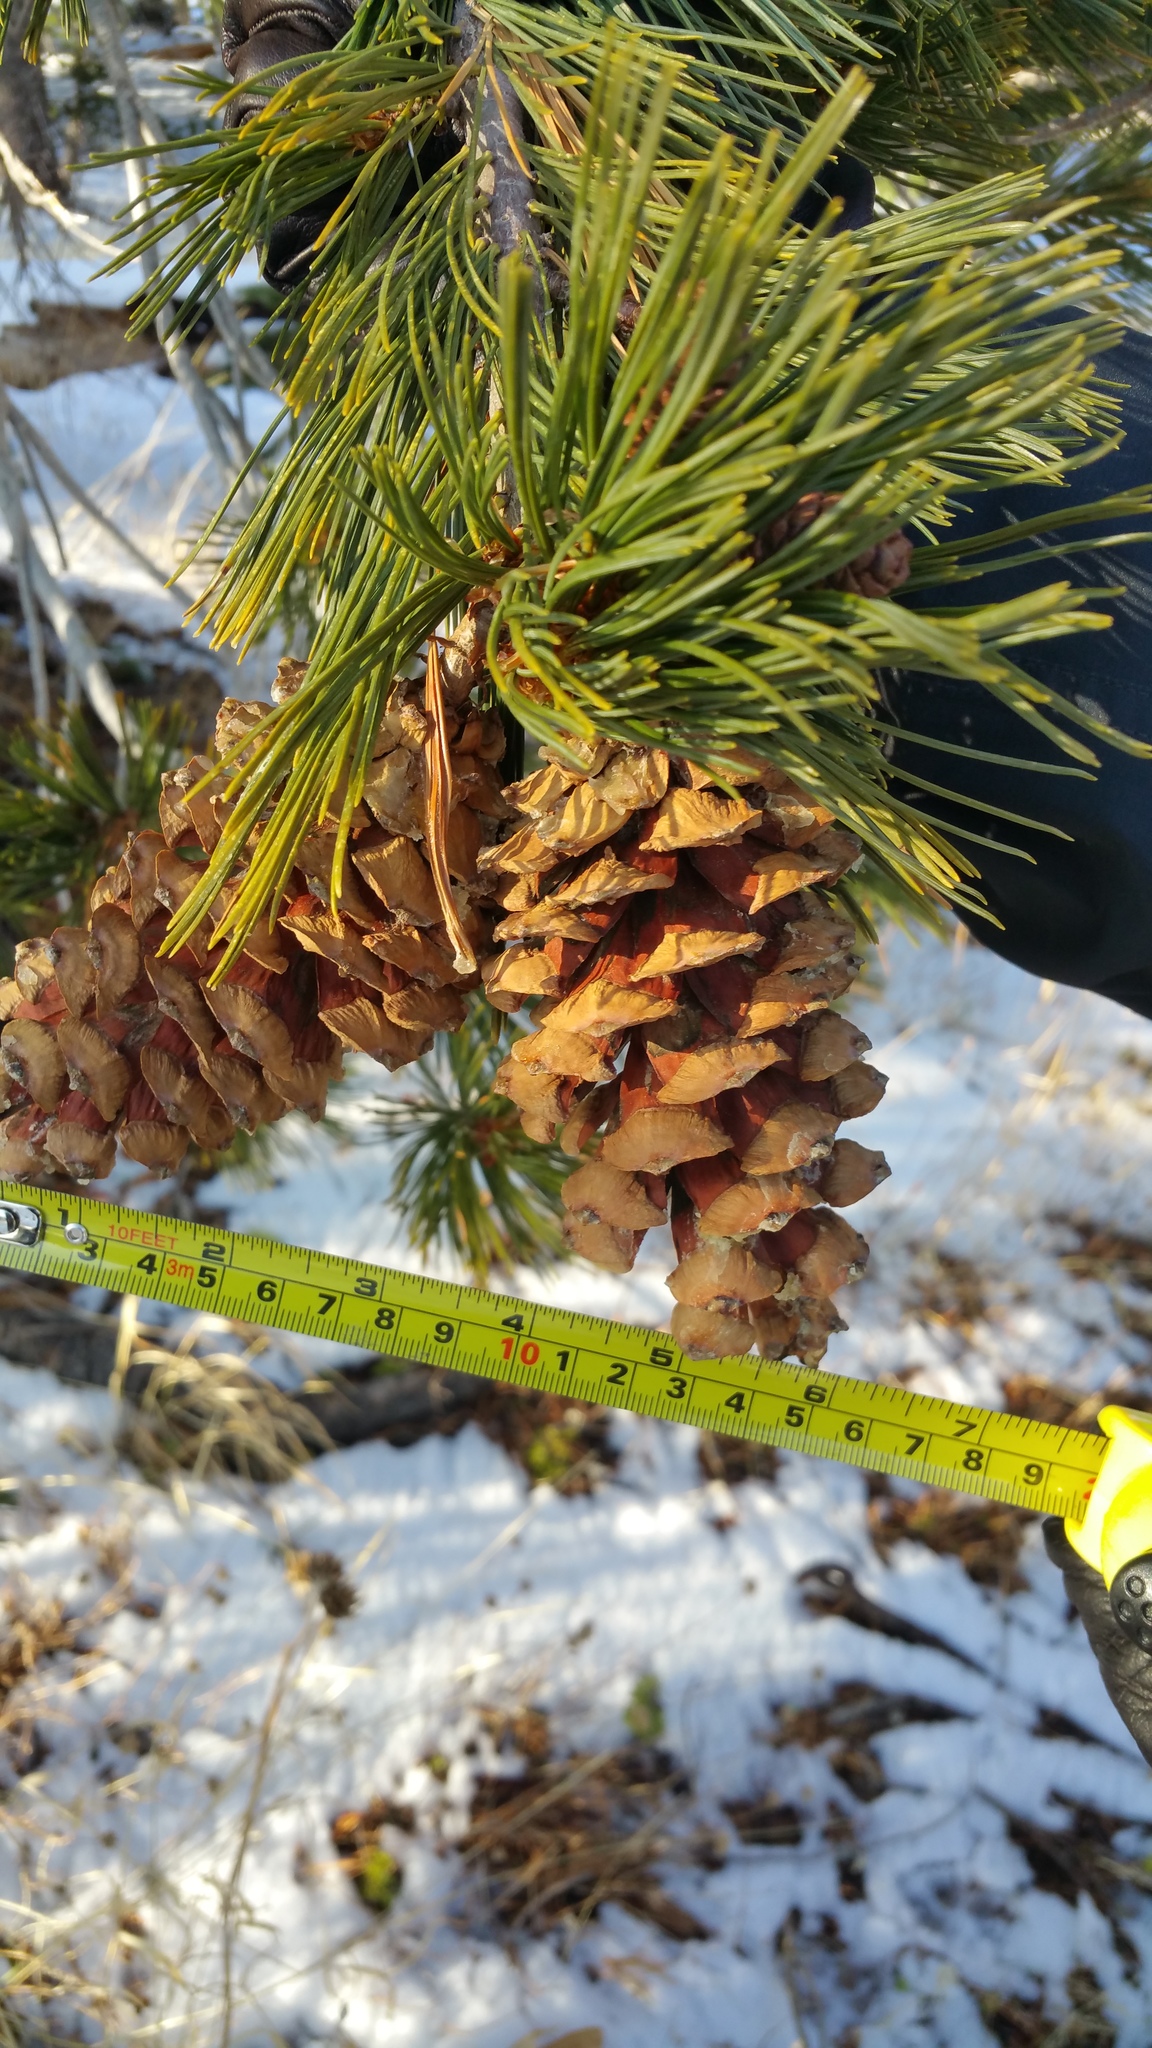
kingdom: Plantae
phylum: Tracheophyta
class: Pinopsida
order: Pinales
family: Pinaceae
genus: Pinus
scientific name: Pinus monticola
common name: Western white pine
